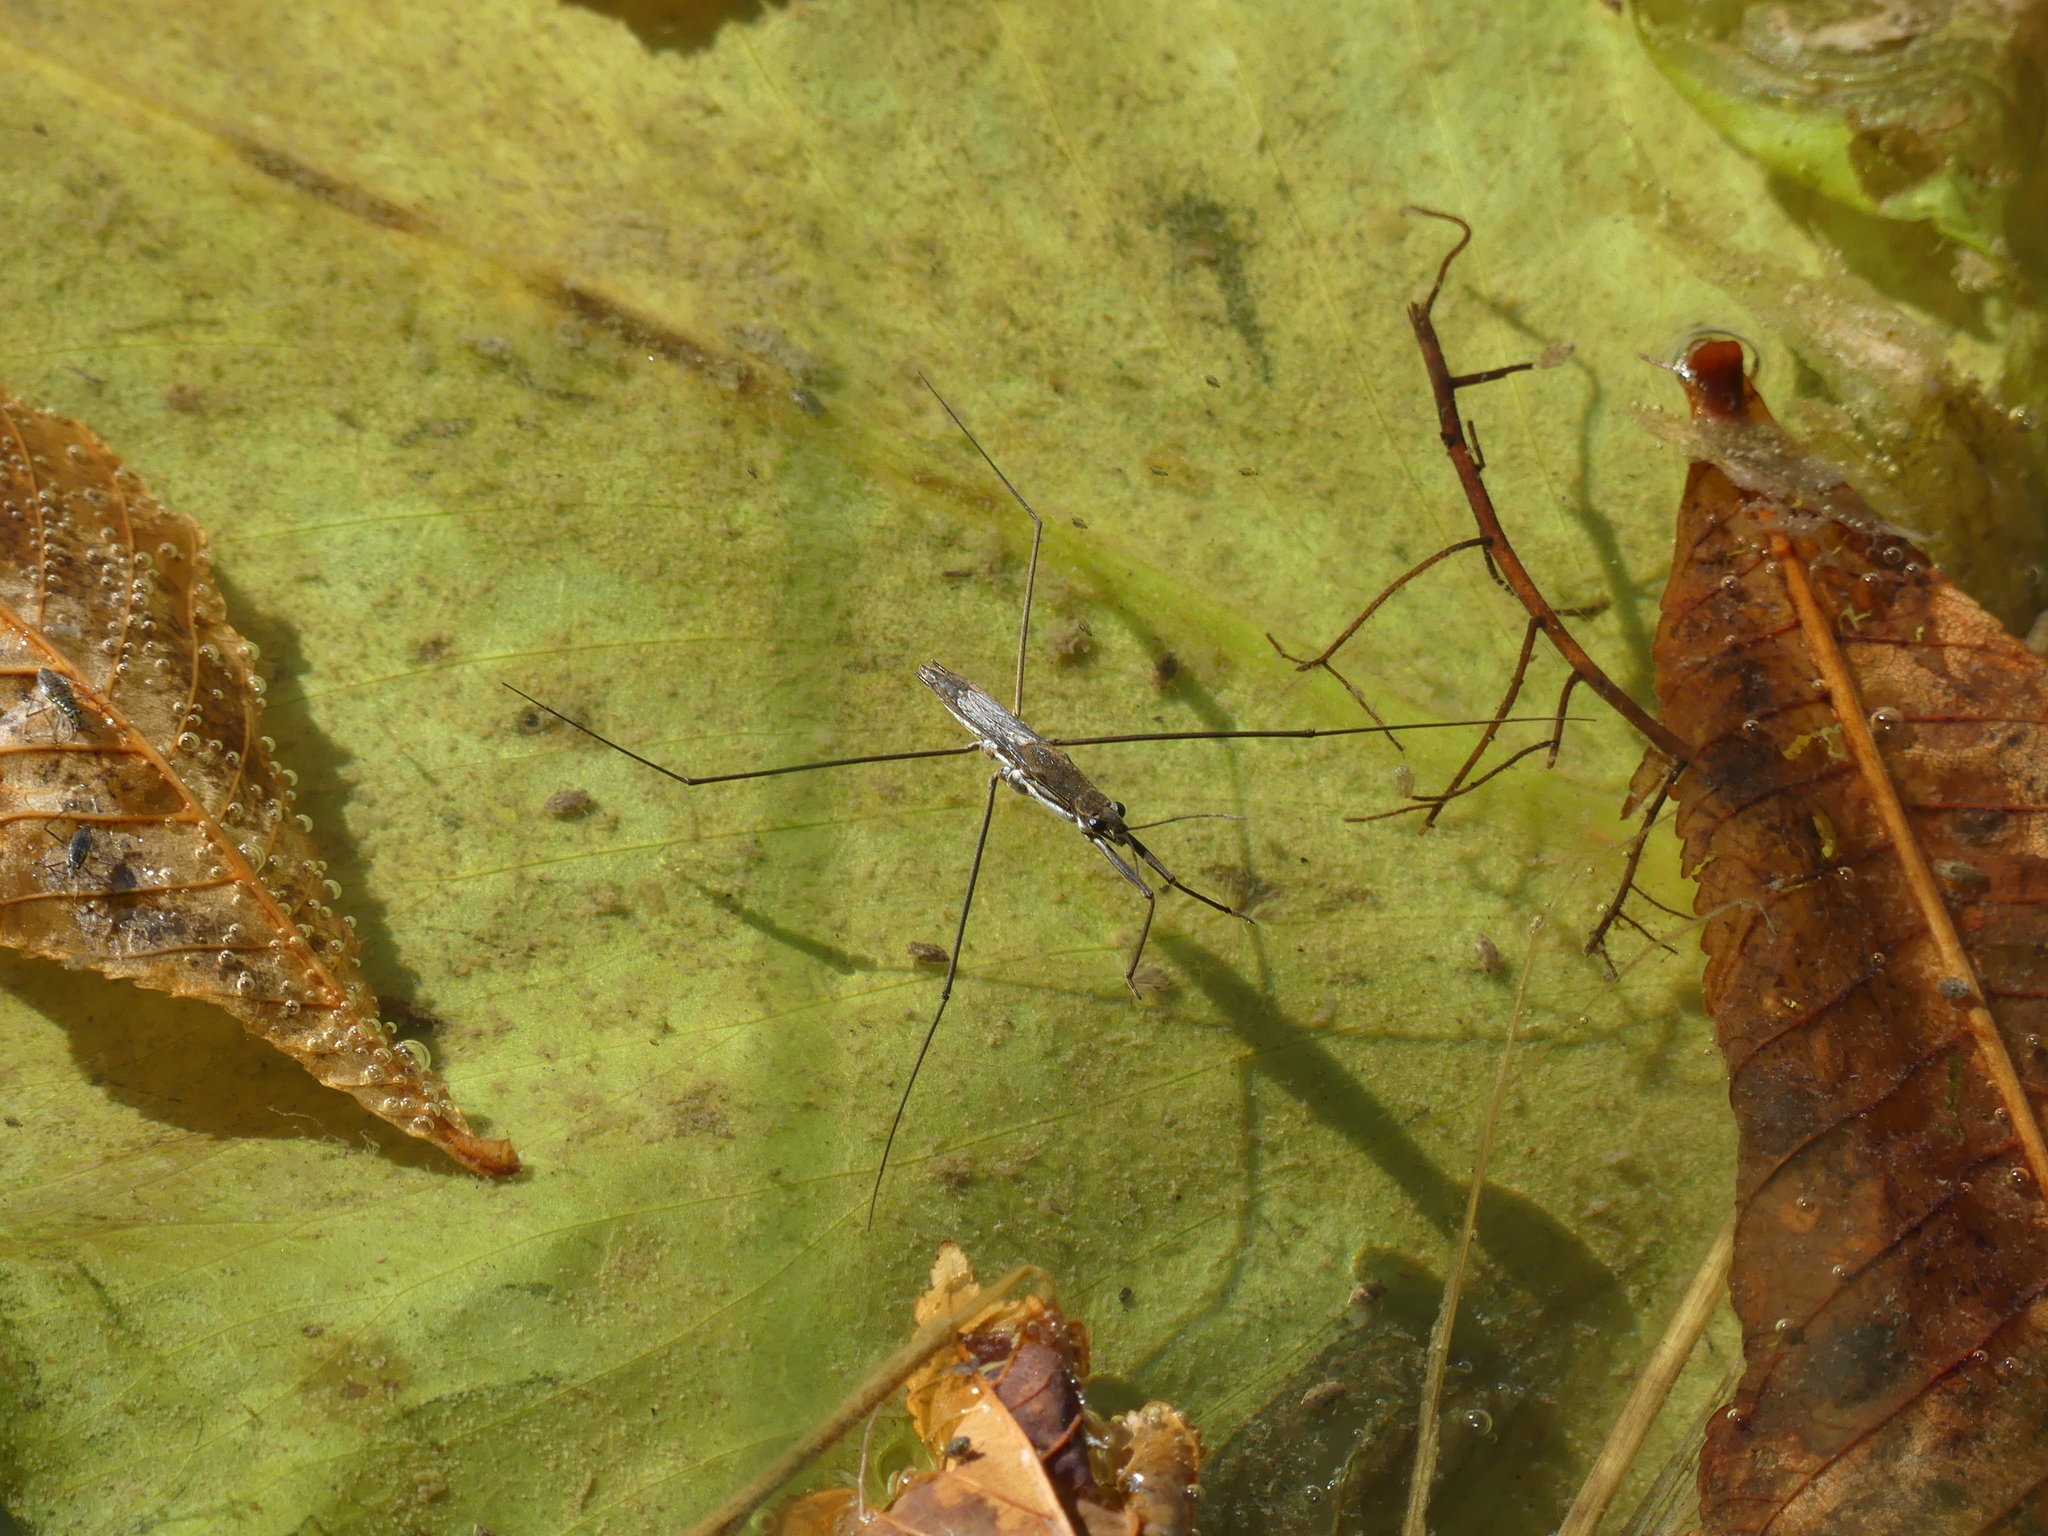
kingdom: Animalia
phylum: Arthropoda
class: Insecta
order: Hemiptera
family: Gerridae
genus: Aquarius
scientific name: Aquarius paludum
